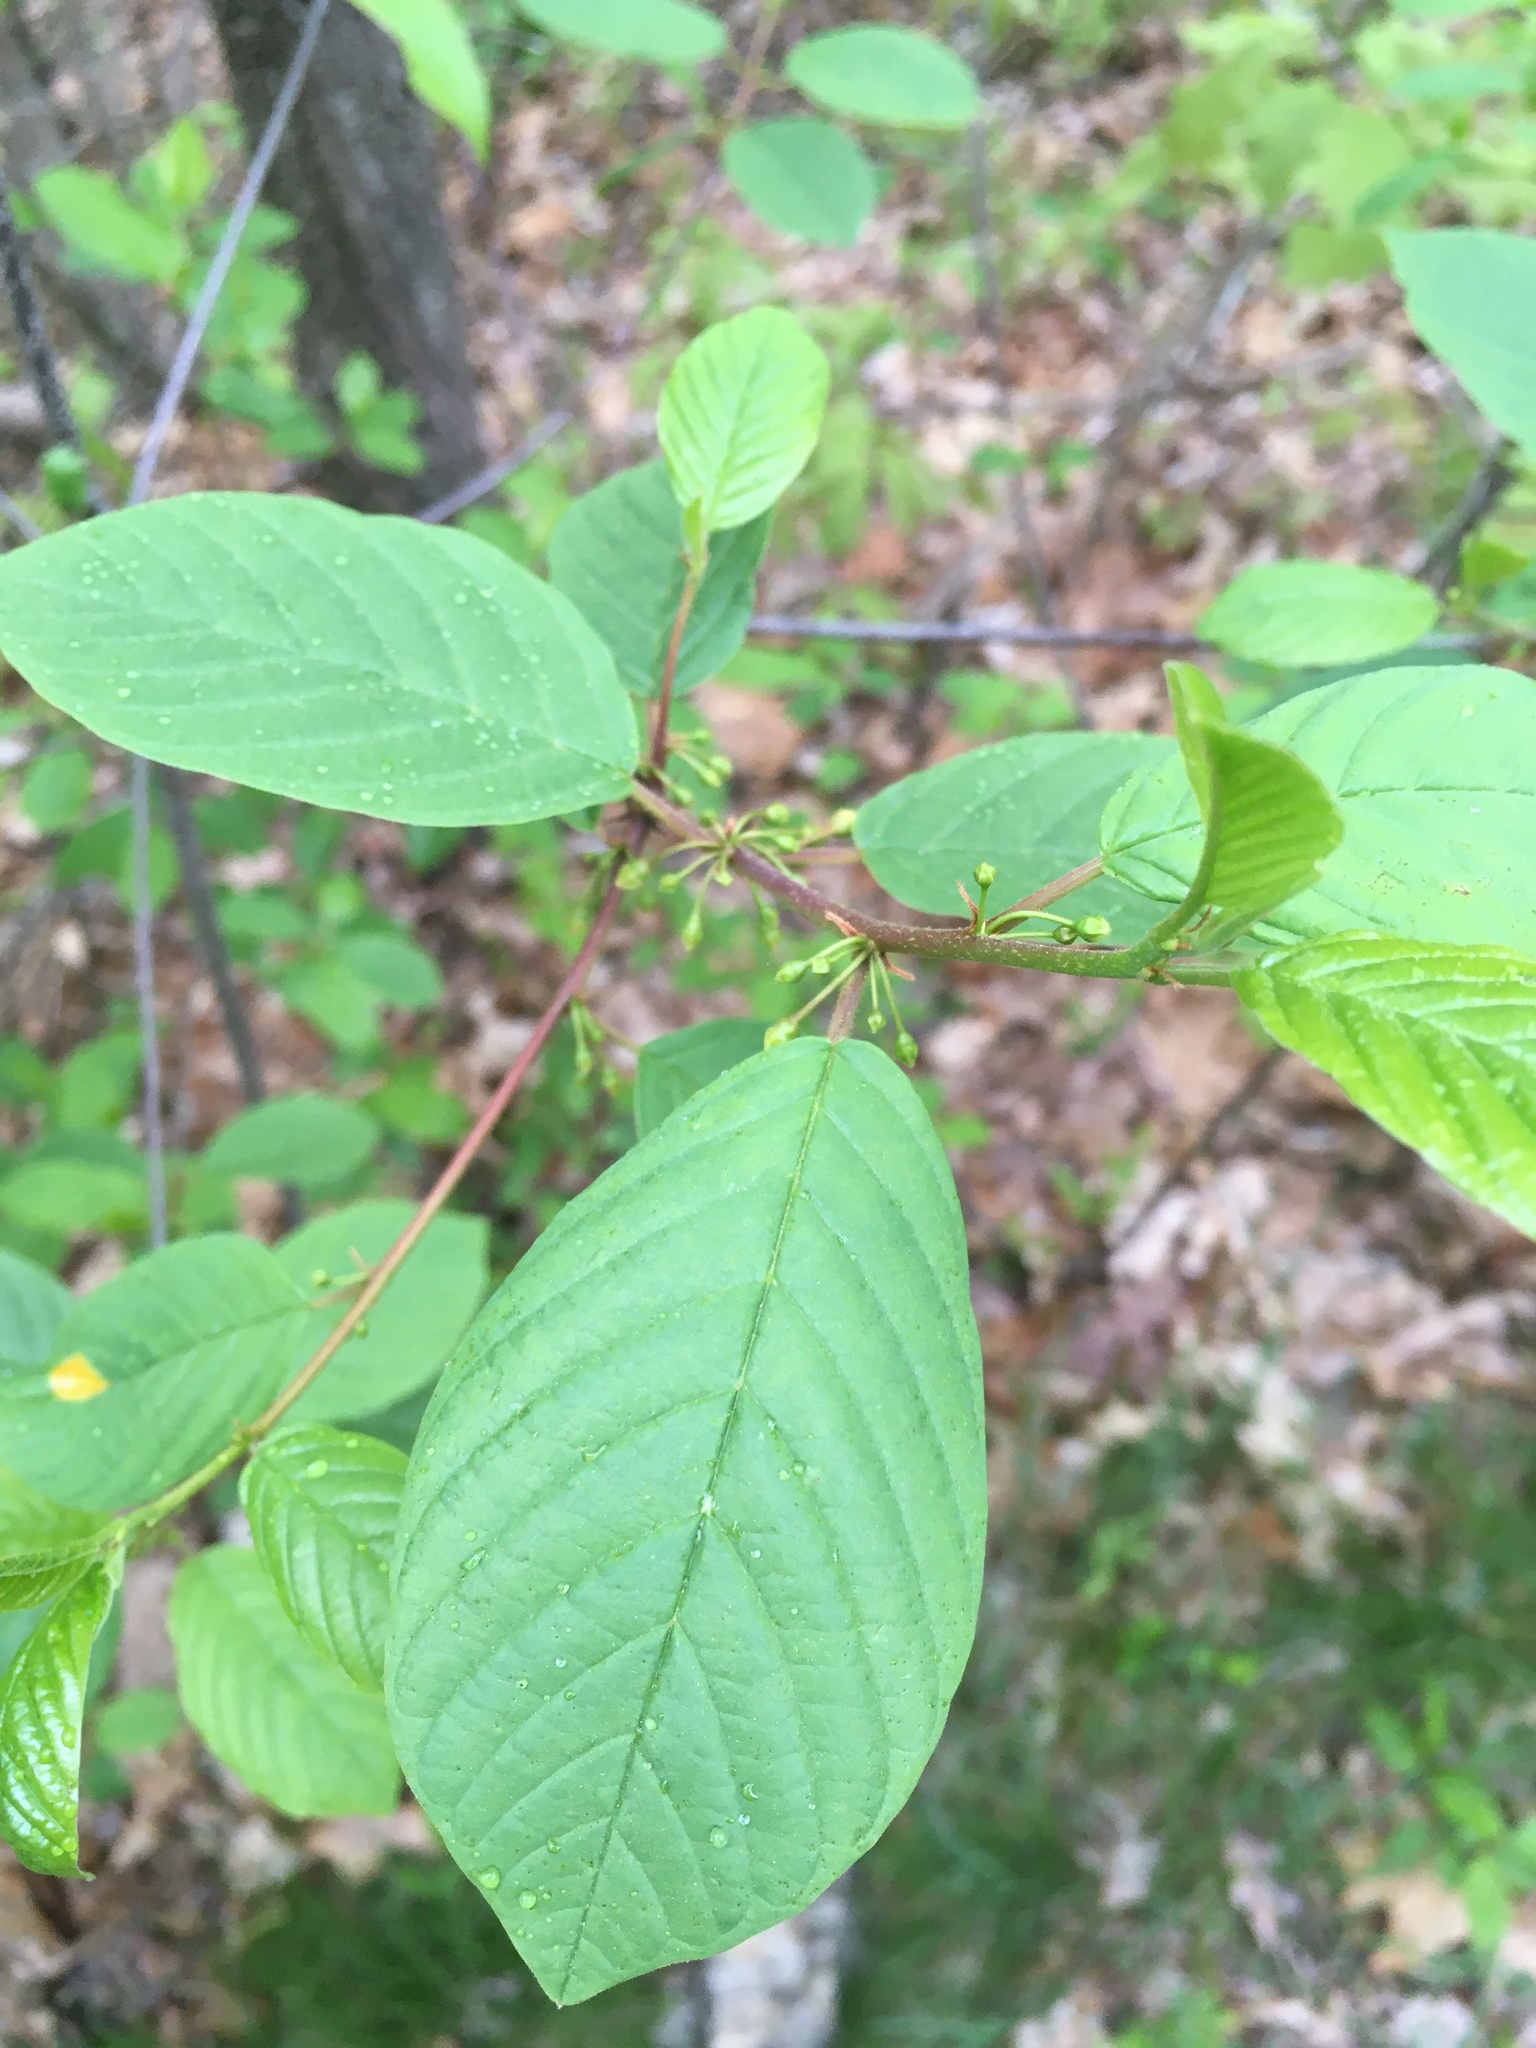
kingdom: Plantae
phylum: Tracheophyta
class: Magnoliopsida
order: Rosales
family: Rhamnaceae
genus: Frangula
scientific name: Frangula alnus
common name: Alder buckthorn
